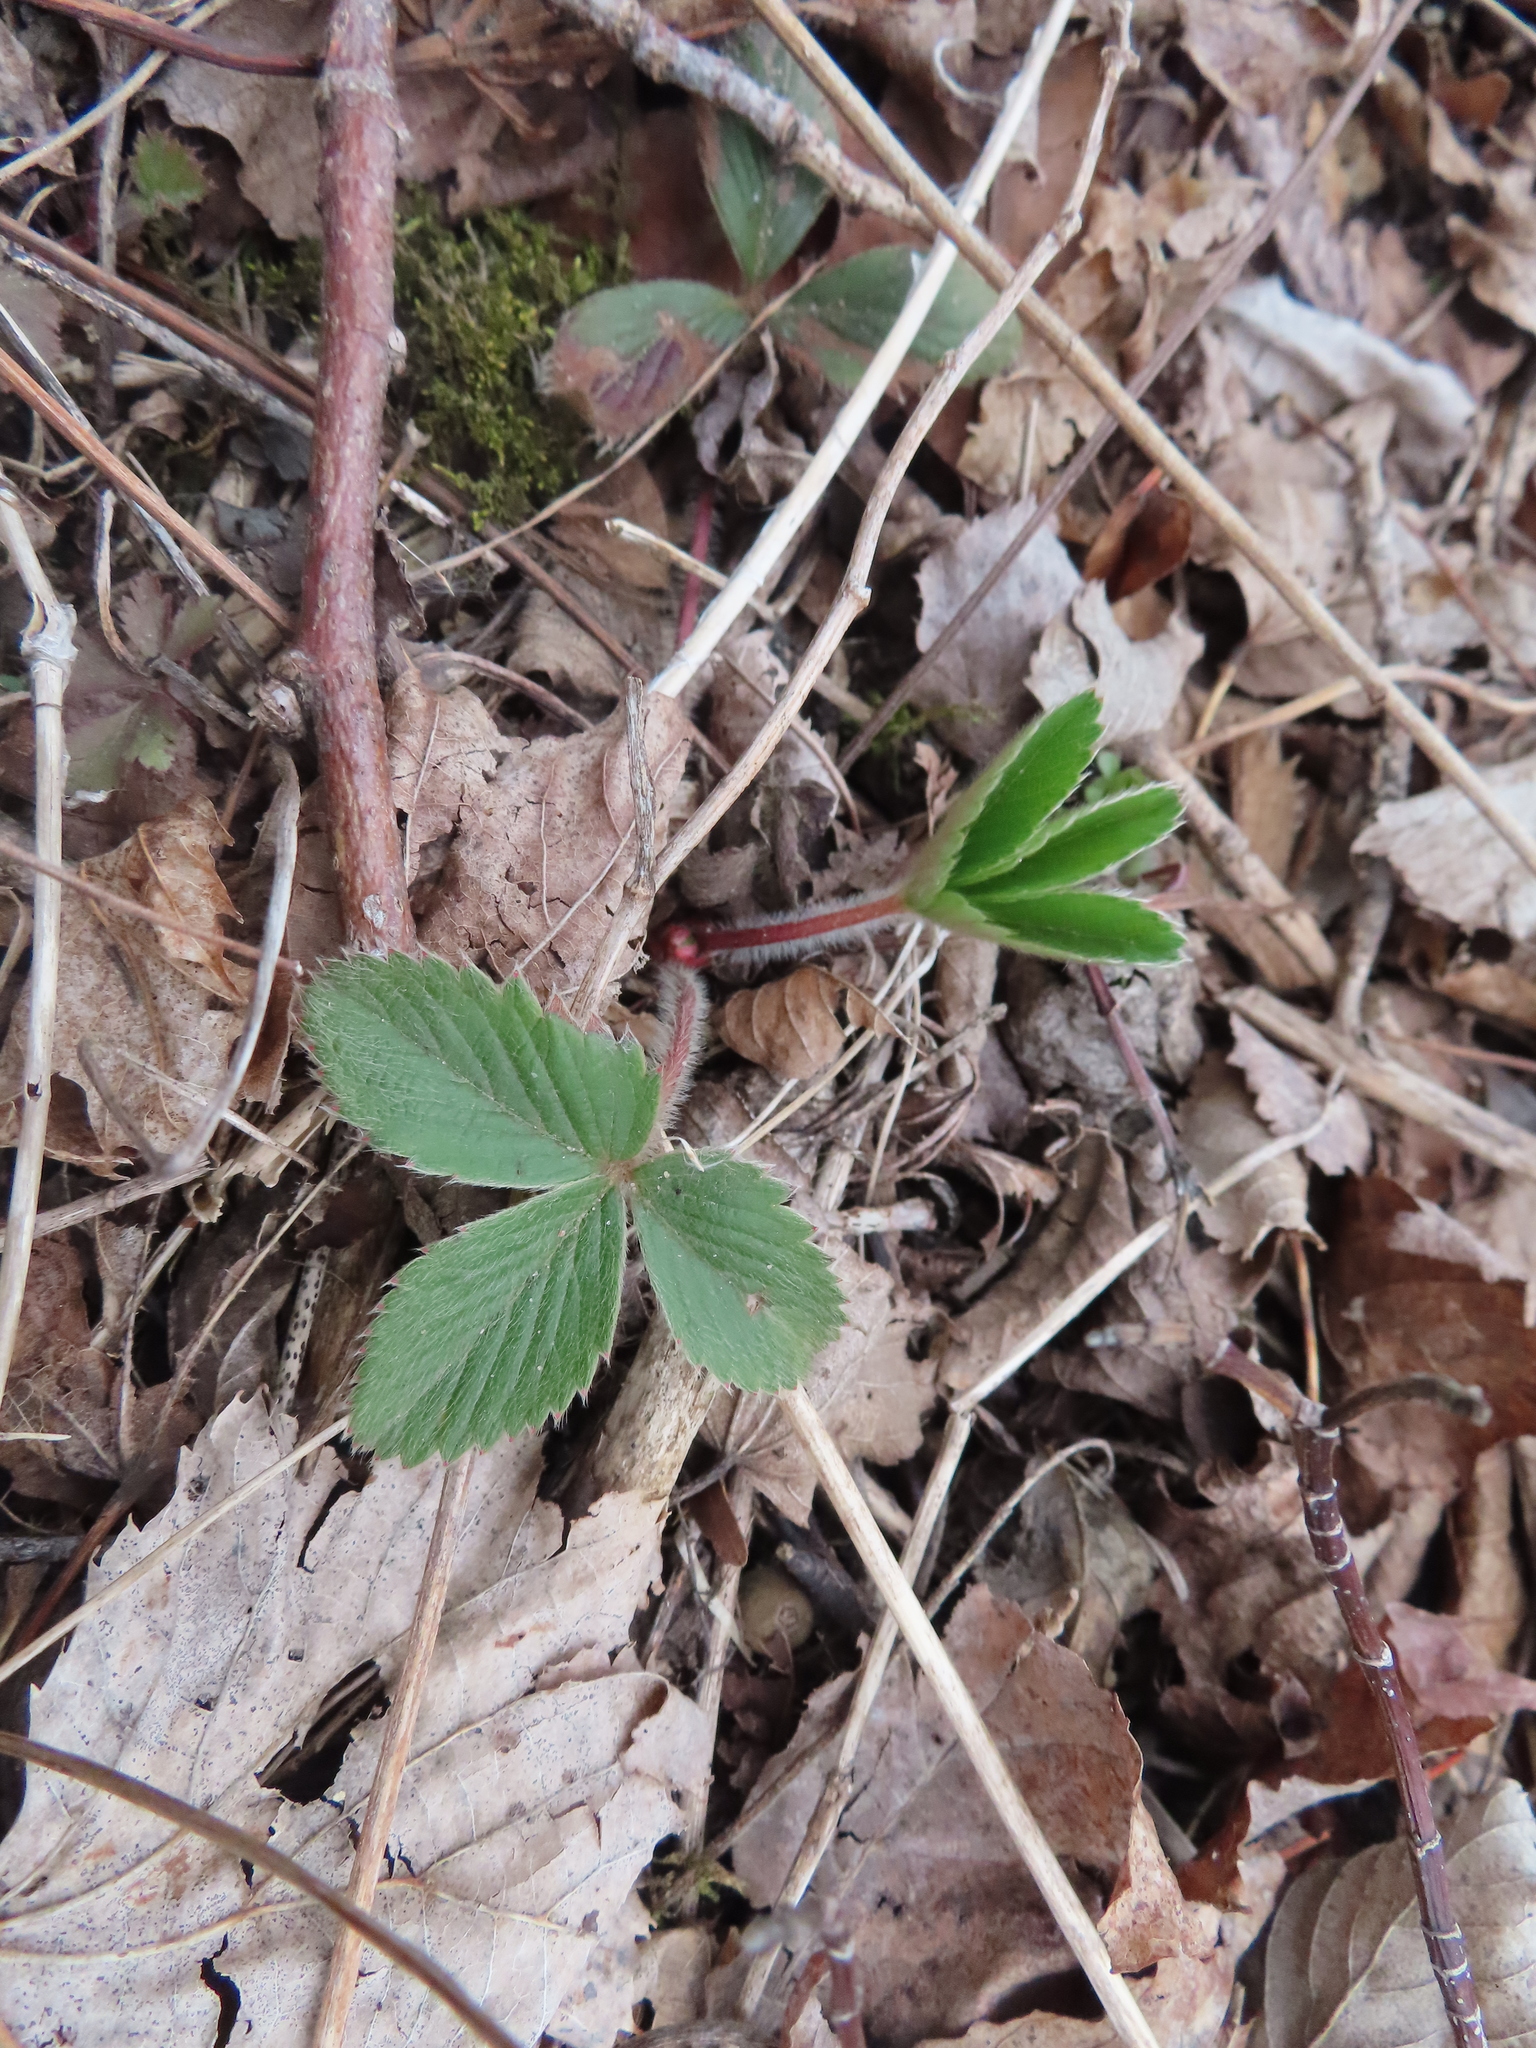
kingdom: Plantae
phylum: Tracheophyta
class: Magnoliopsida
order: Rosales
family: Rosaceae
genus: Fragaria
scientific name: Fragaria virginiana
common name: Thickleaved wild strawberry
